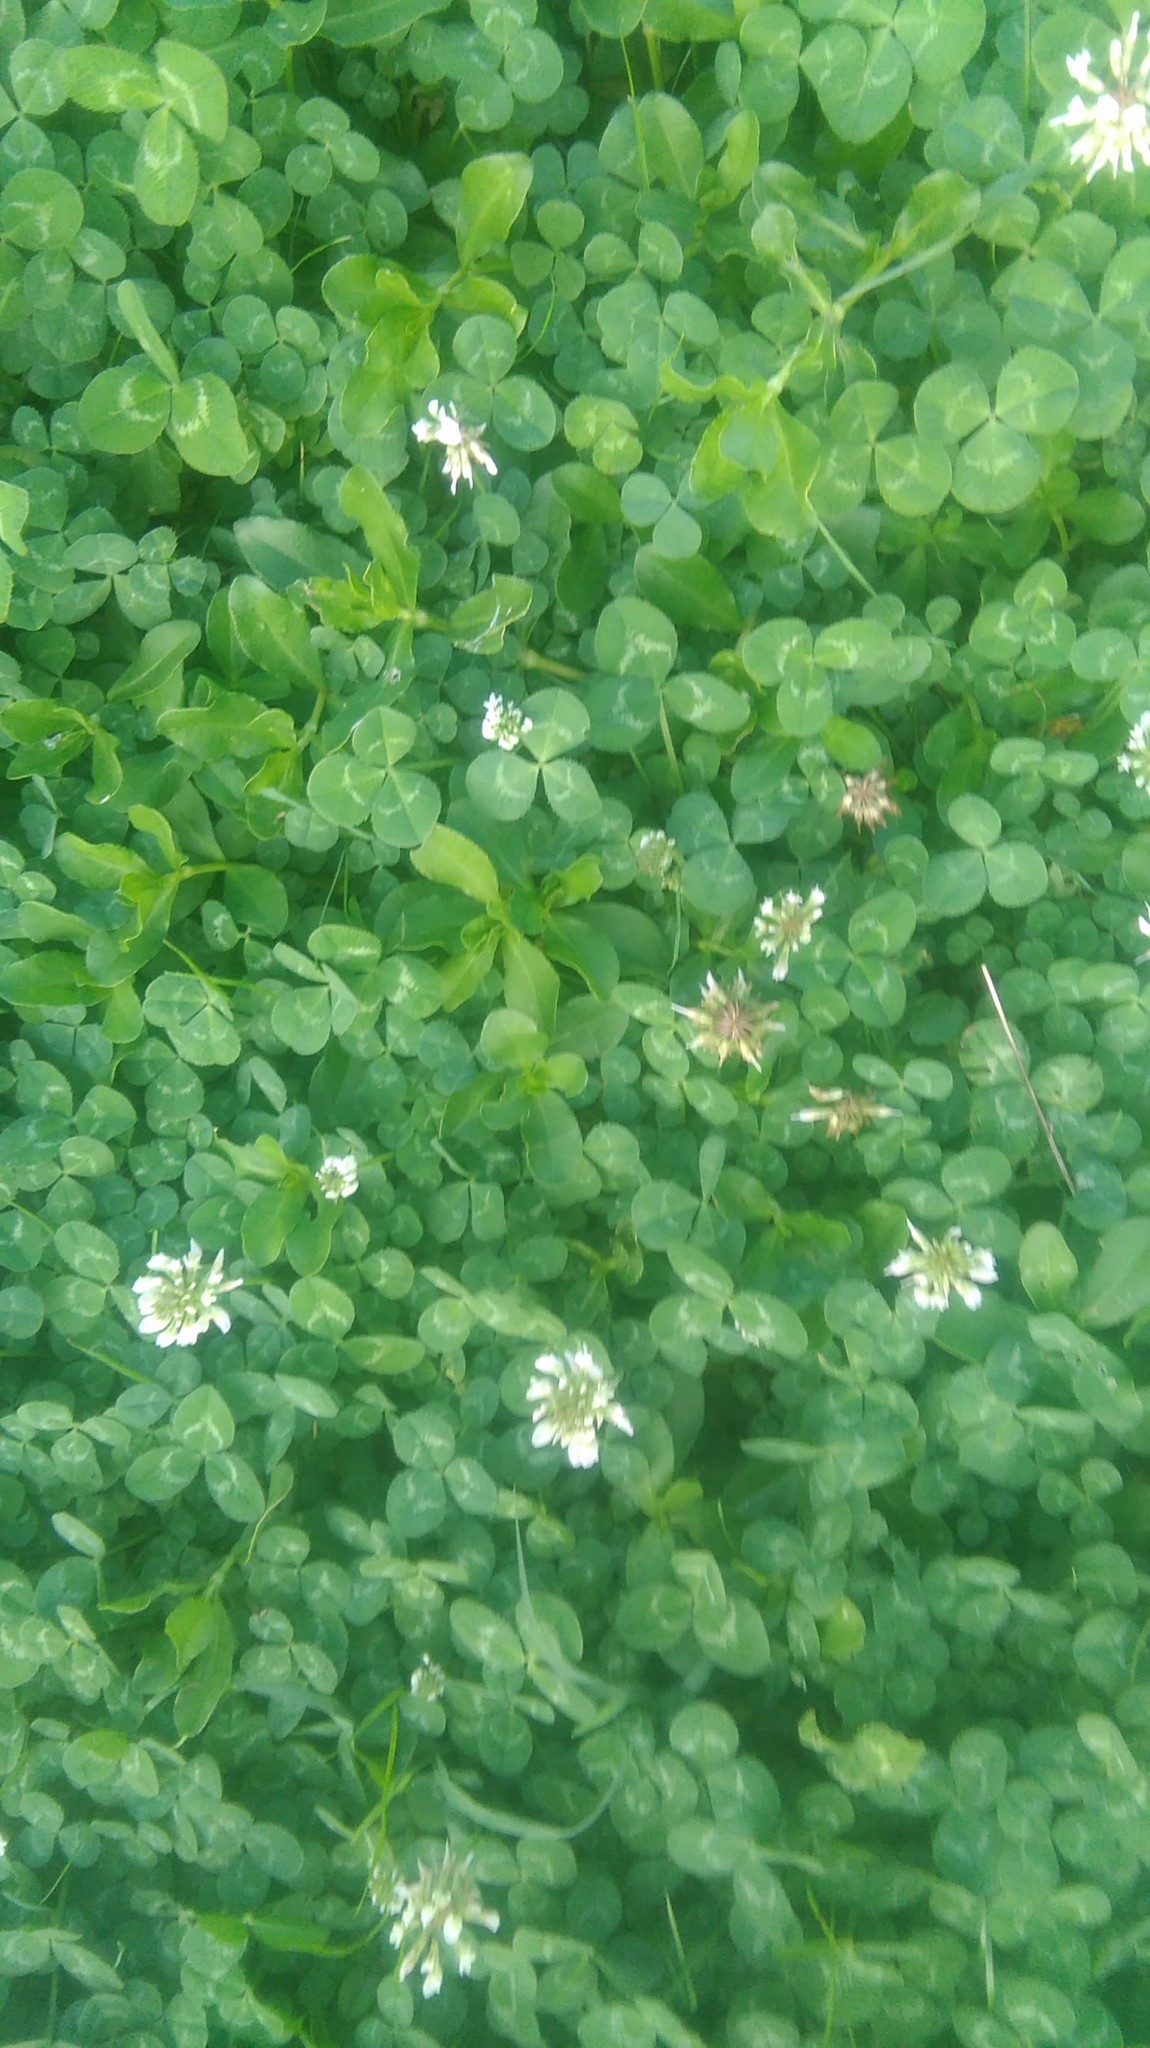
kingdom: Plantae
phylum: Tracheophyta
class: Magnoliopsida
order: Fabales
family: Fabaceae
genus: Trifolium
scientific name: Trifolium repens
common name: White clover
